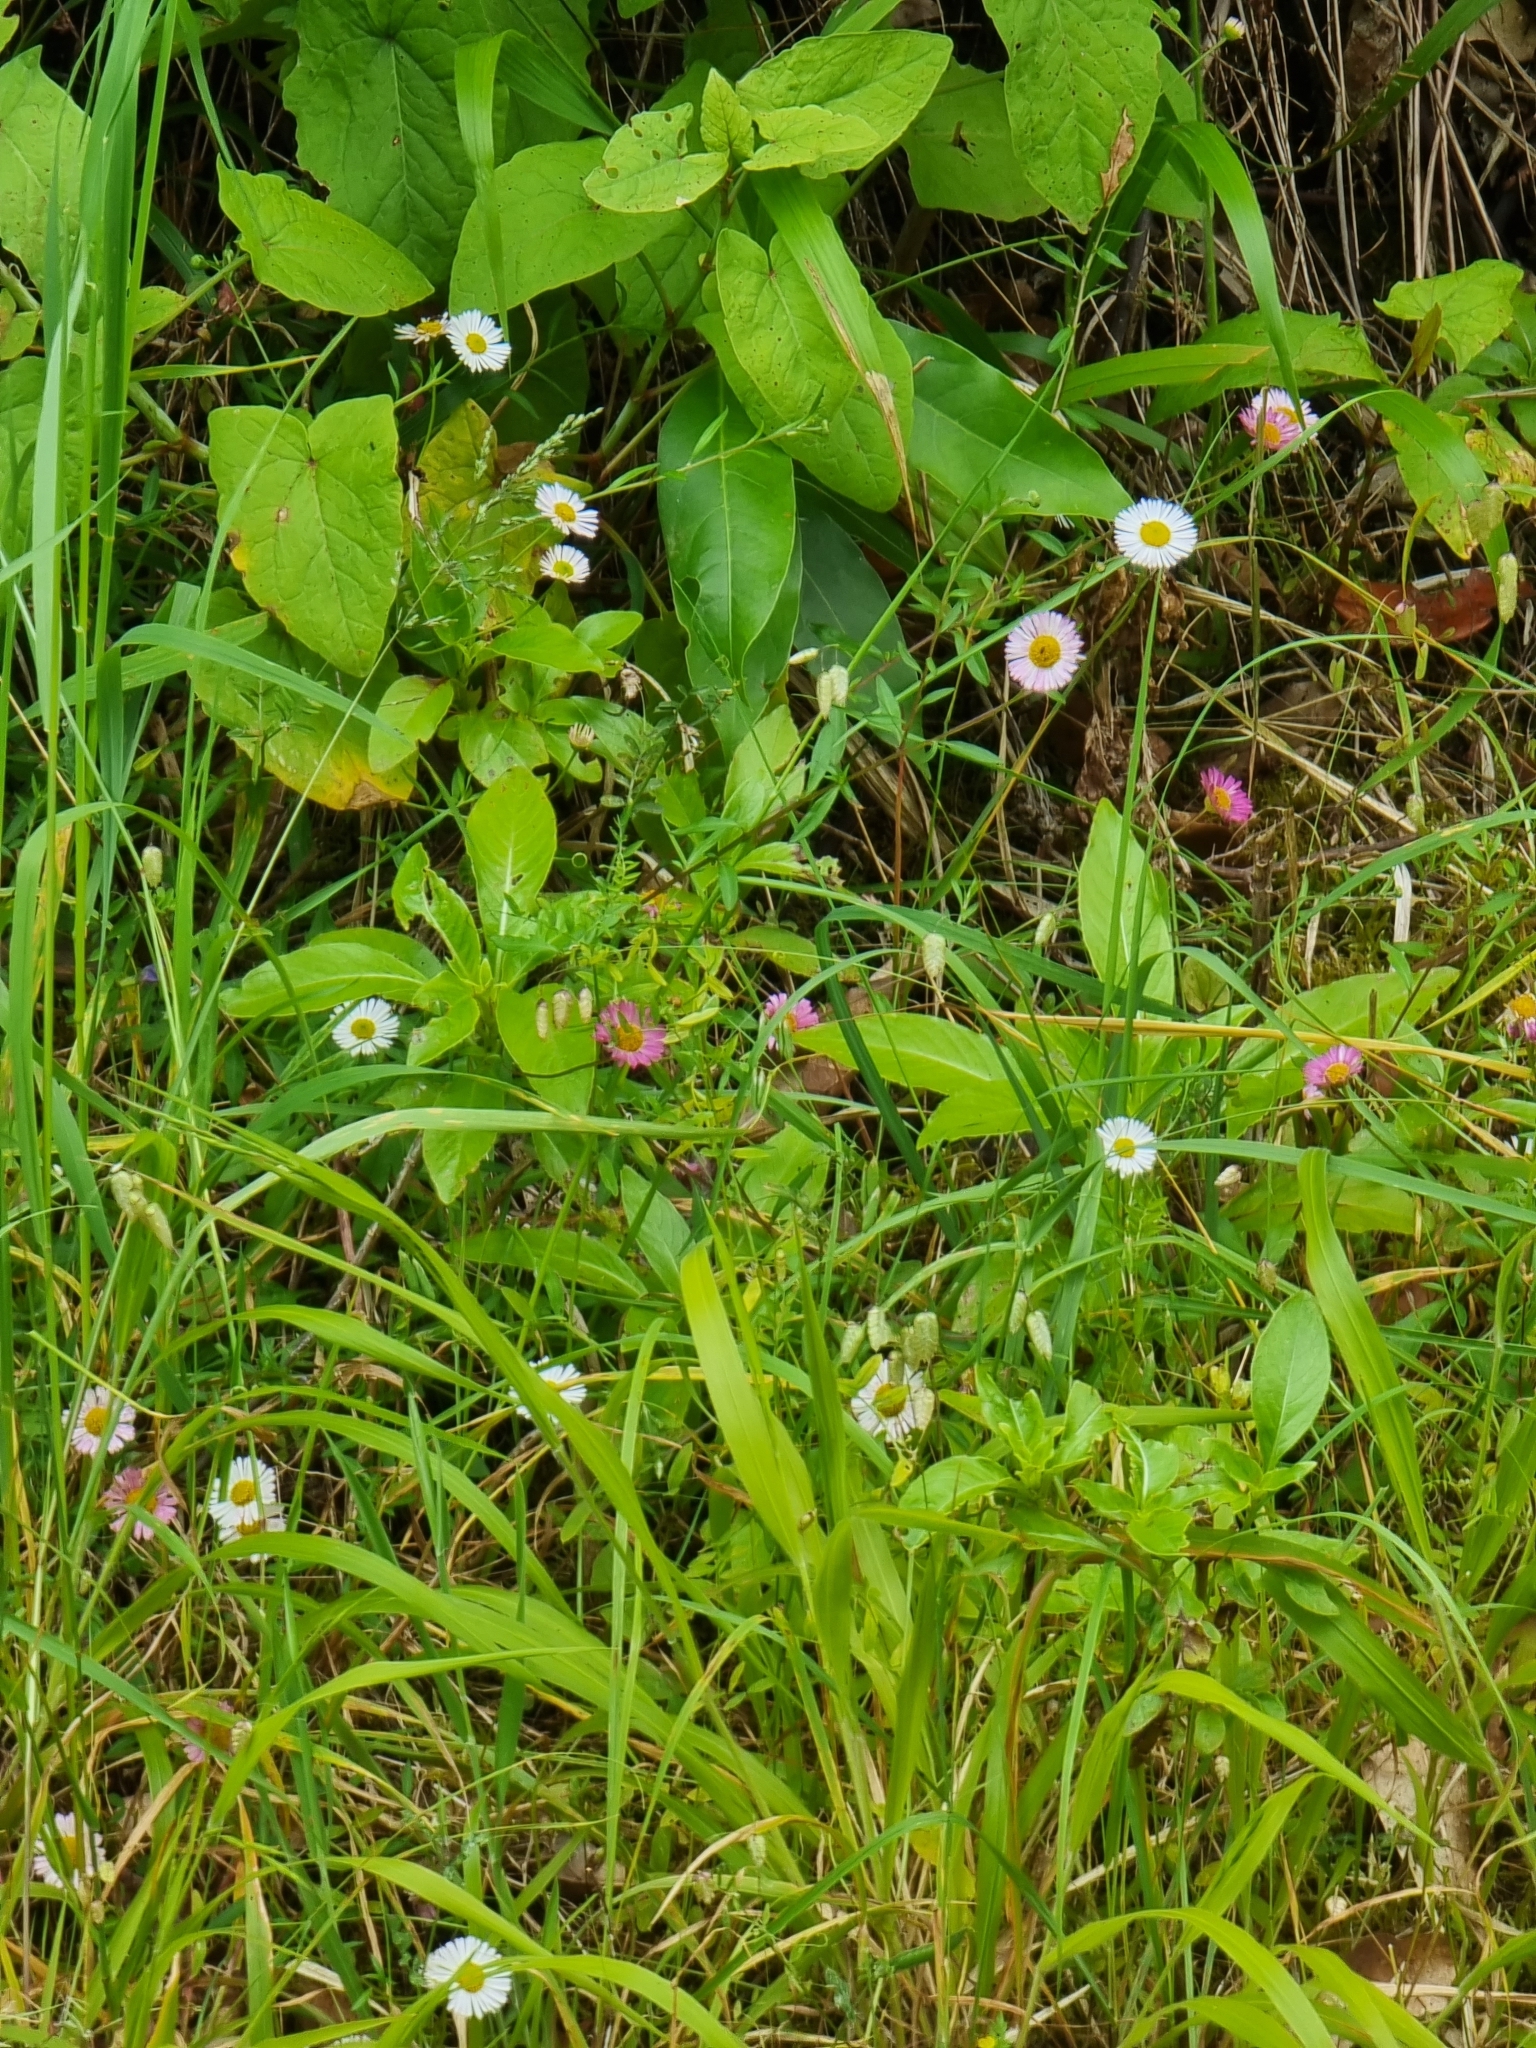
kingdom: Plantae
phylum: Tracheophyta
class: Magnoliopsida
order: Asterales
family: Asteraceae
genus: Erigeron
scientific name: Erigeron karvinskianus
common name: Mexican fleabane
